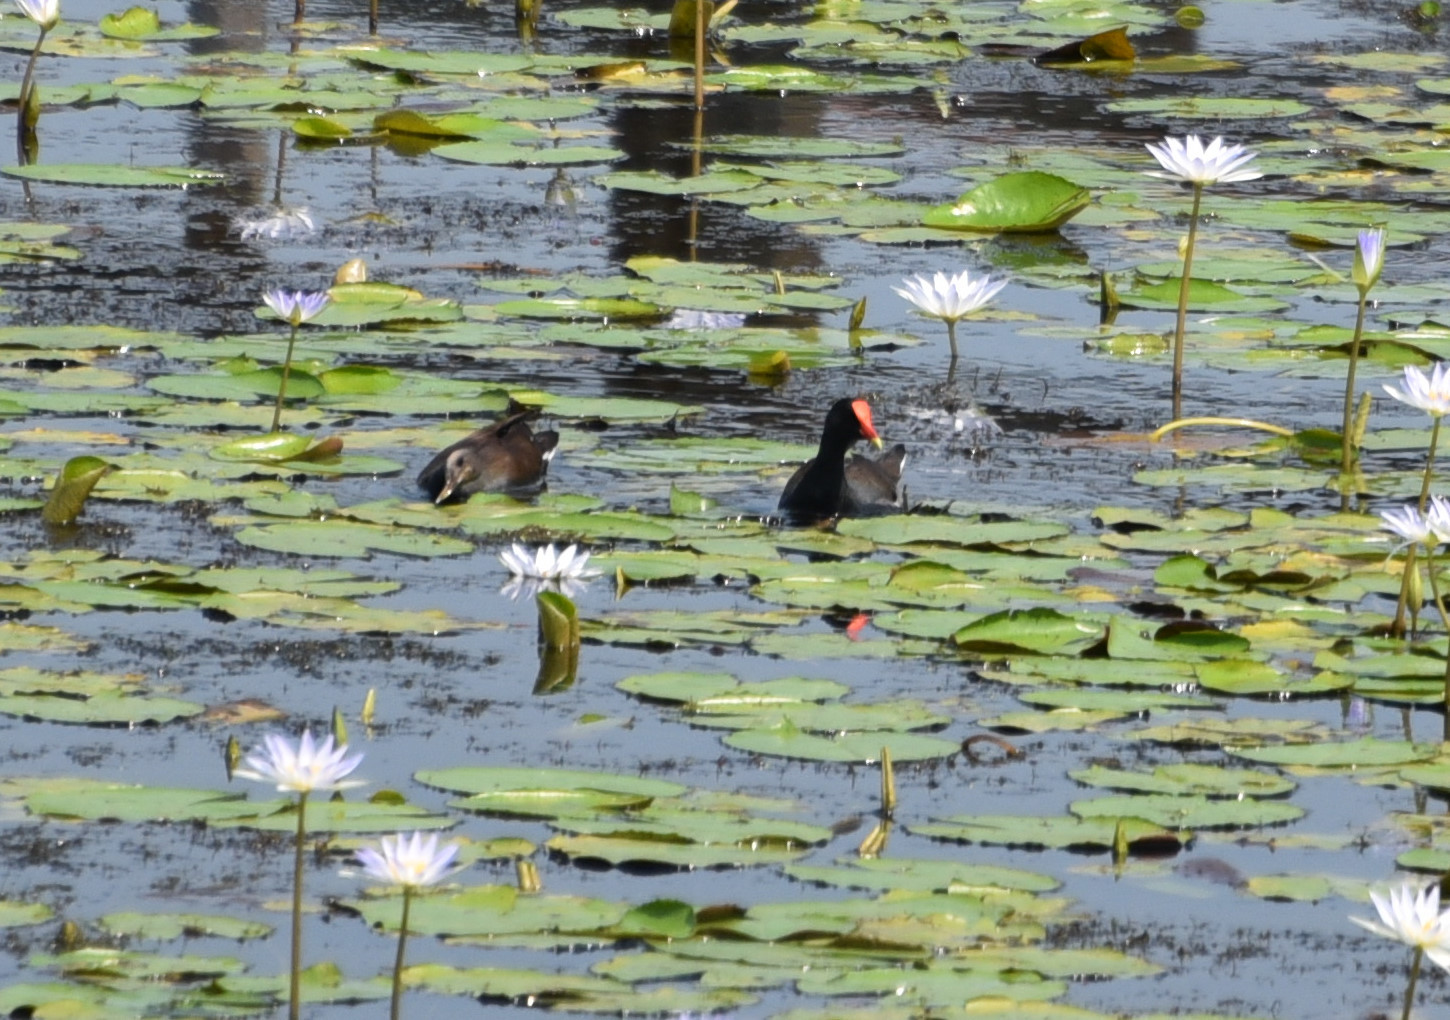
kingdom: Animalia
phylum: Chordata
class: Aves
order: Gruiformes
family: Rallidae
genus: Gallinula
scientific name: Gallinula chloropus
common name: Common moorhen
